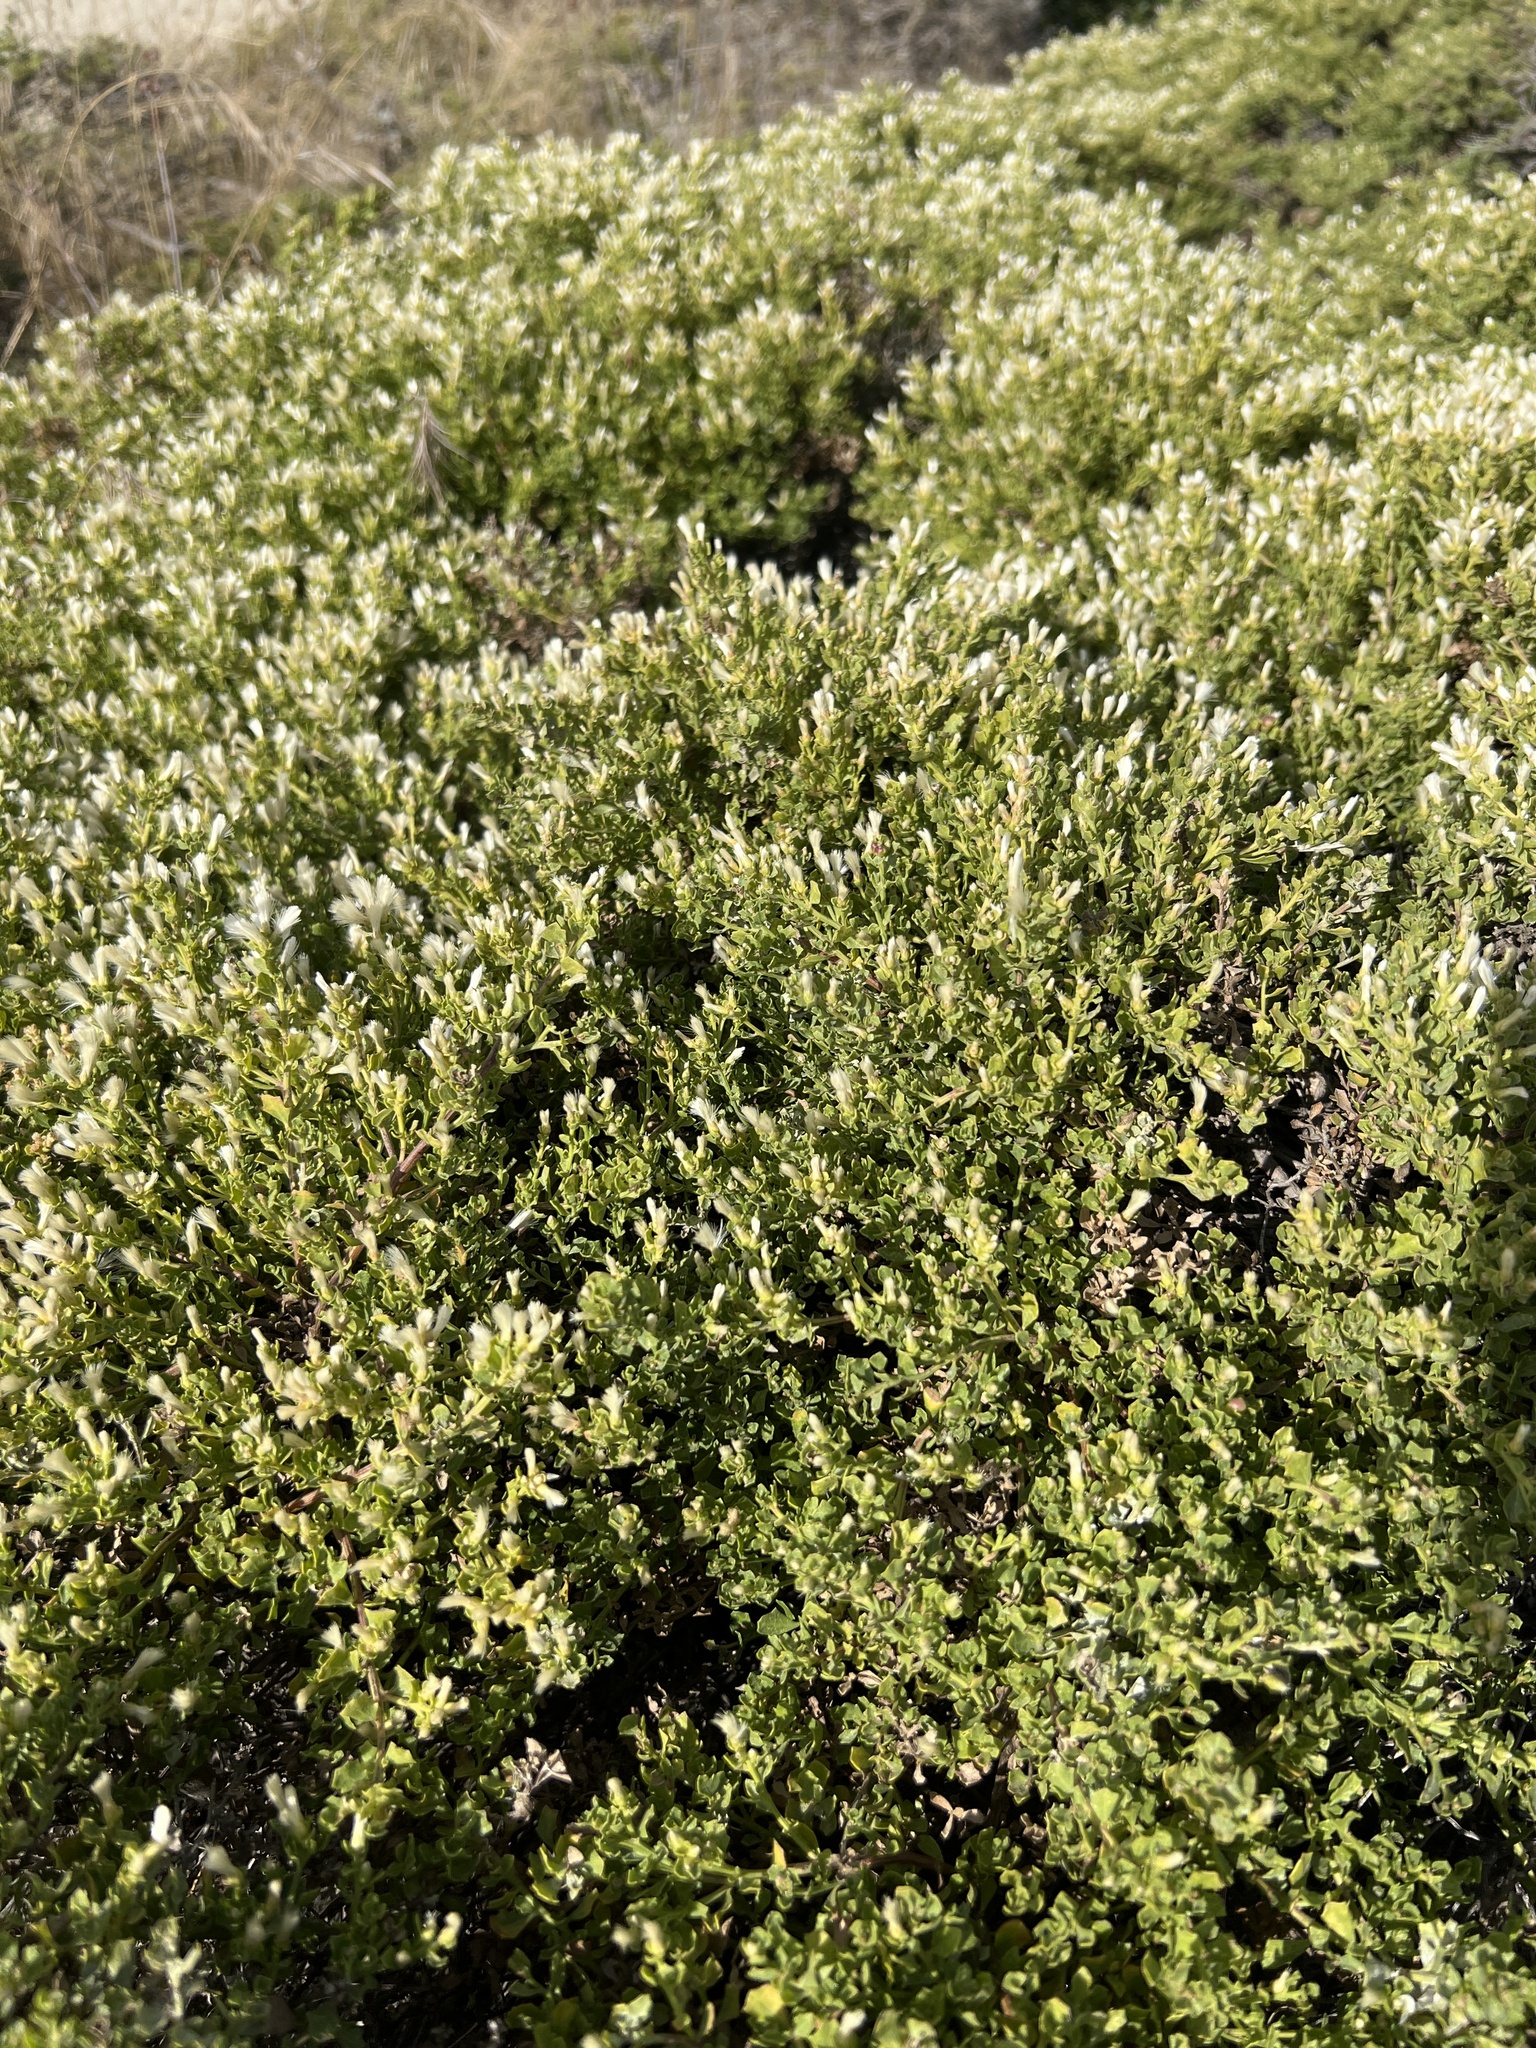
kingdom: Plantae
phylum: Tracheophyta
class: Magnoliopsida
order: Asterales
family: Asteraceae
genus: Baccharis
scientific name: Baccharis pilularis
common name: Coyotebrush
